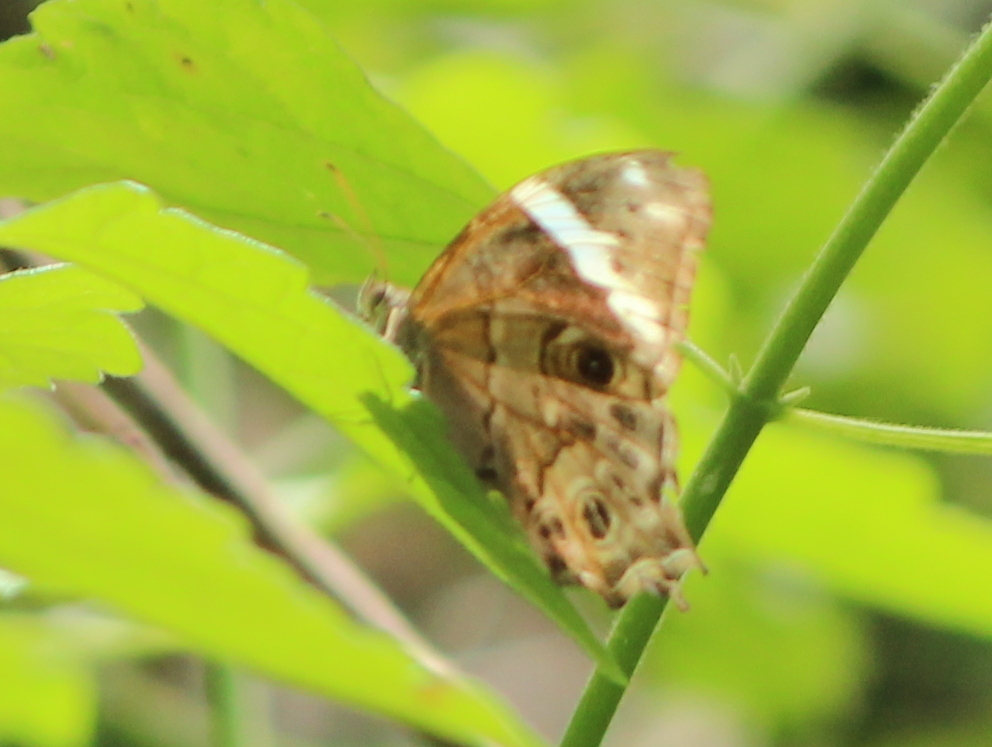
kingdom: Animalia
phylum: Arthropoda
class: Insecta
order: Lepidoptera
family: Nymphalidae
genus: Lethe
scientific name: Lethe drypetis
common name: Tamil treebrown
